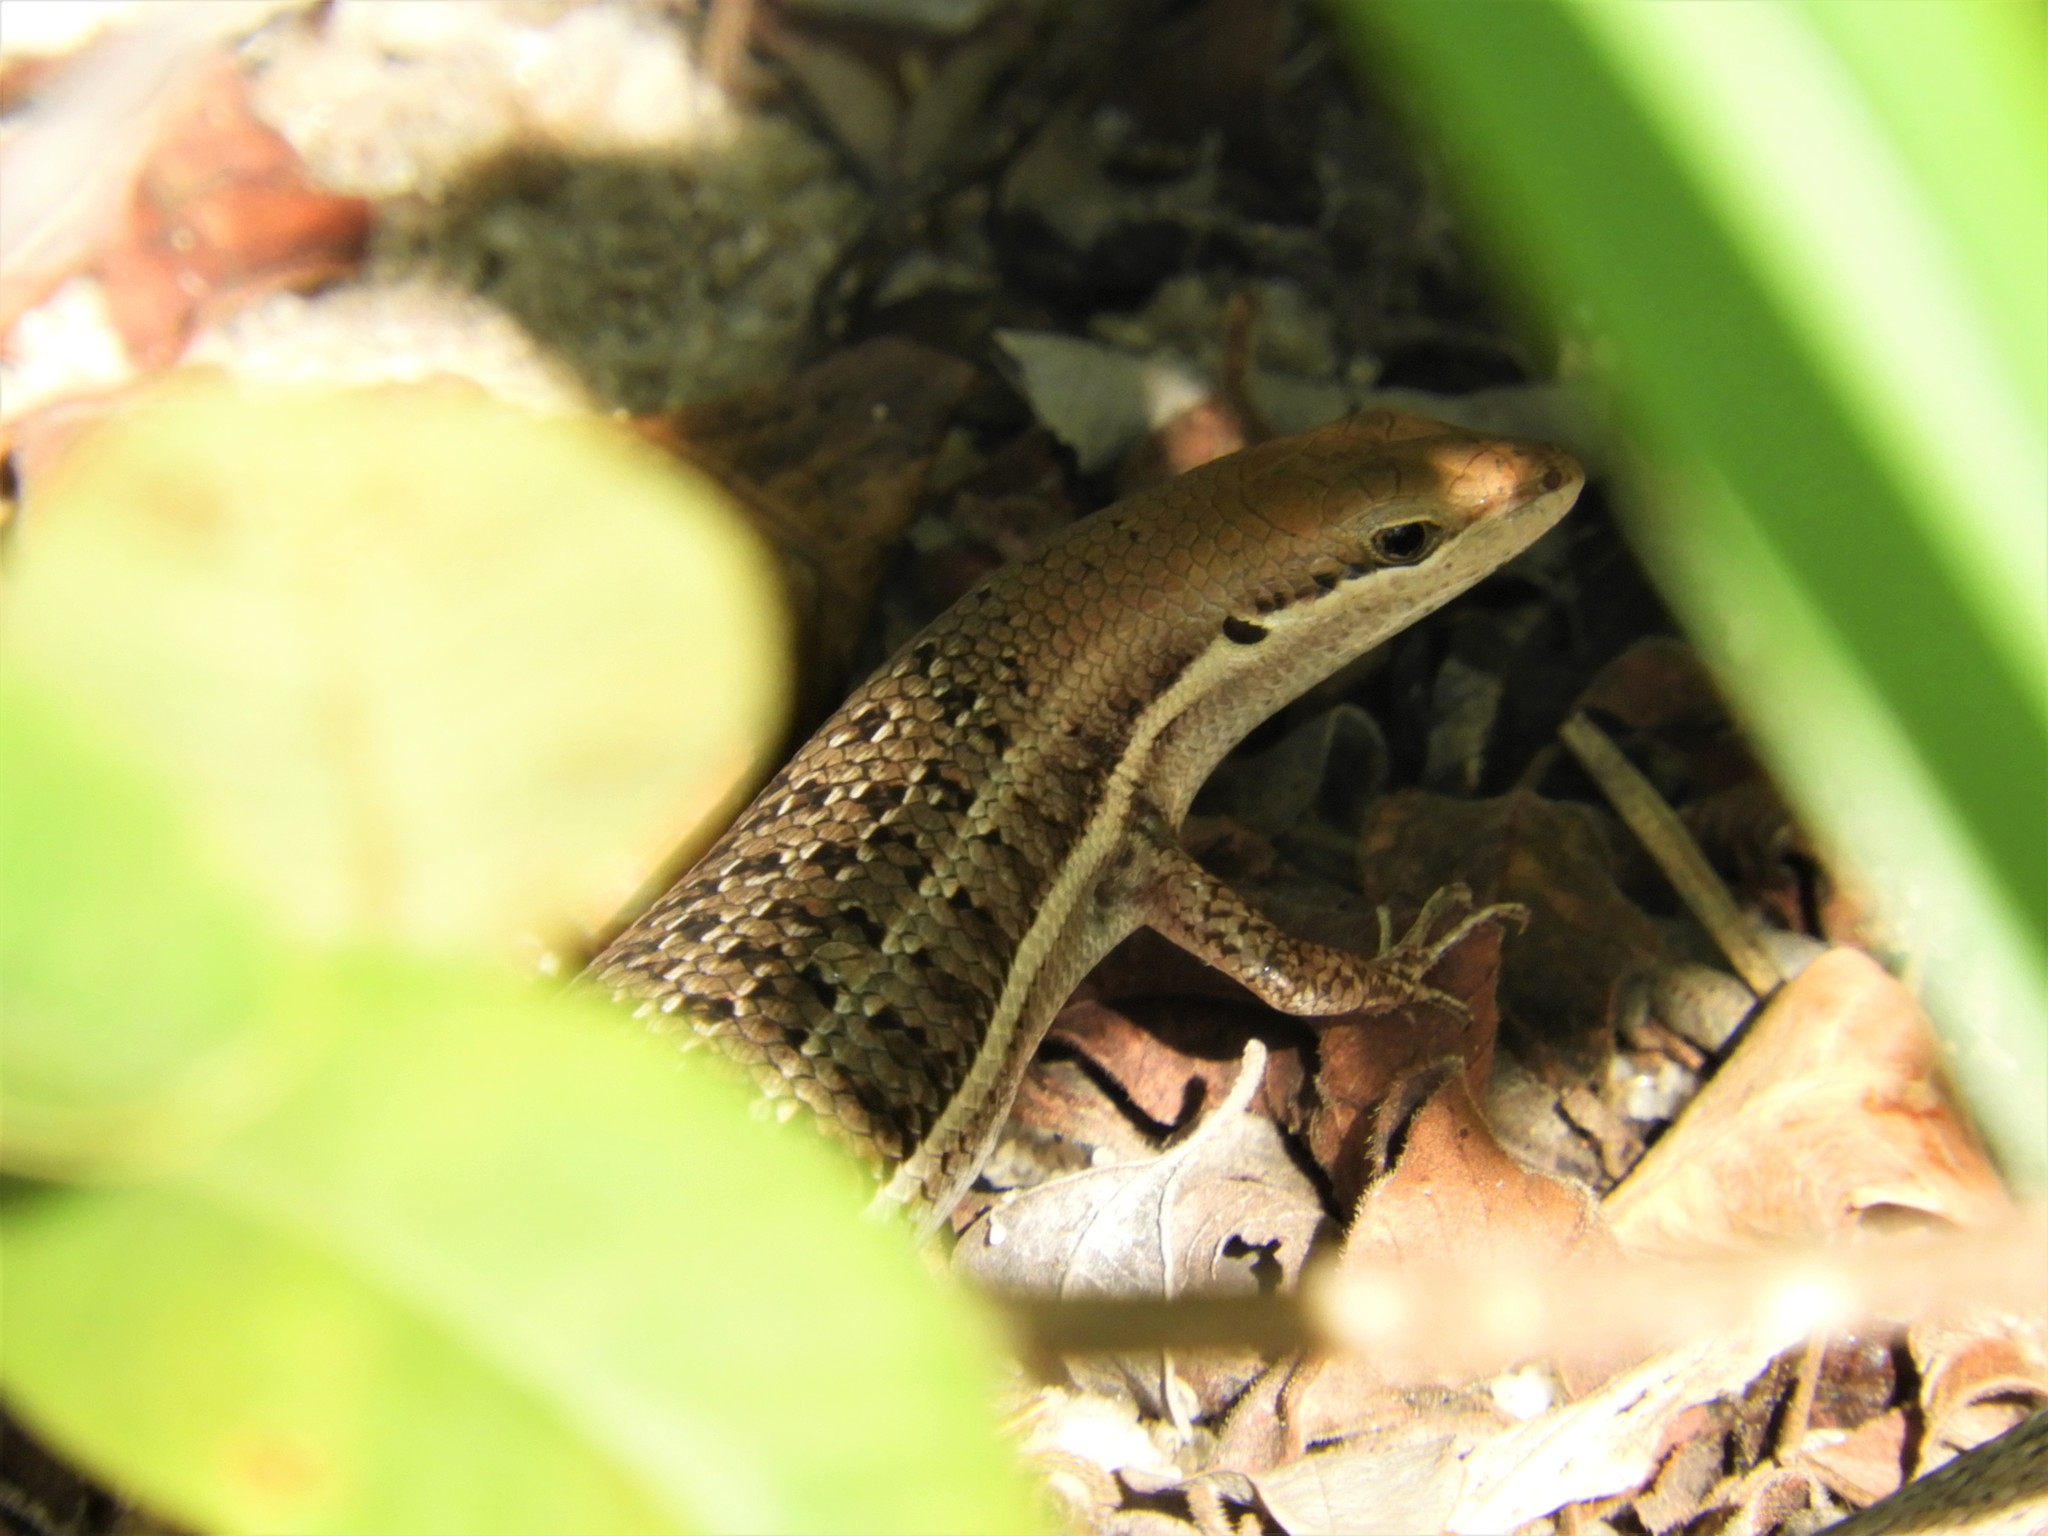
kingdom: Animalia
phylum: Chordata
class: Squamata
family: Scincidae
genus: Trachylepis
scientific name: Trachylepis varia
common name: Eastern variable skink
